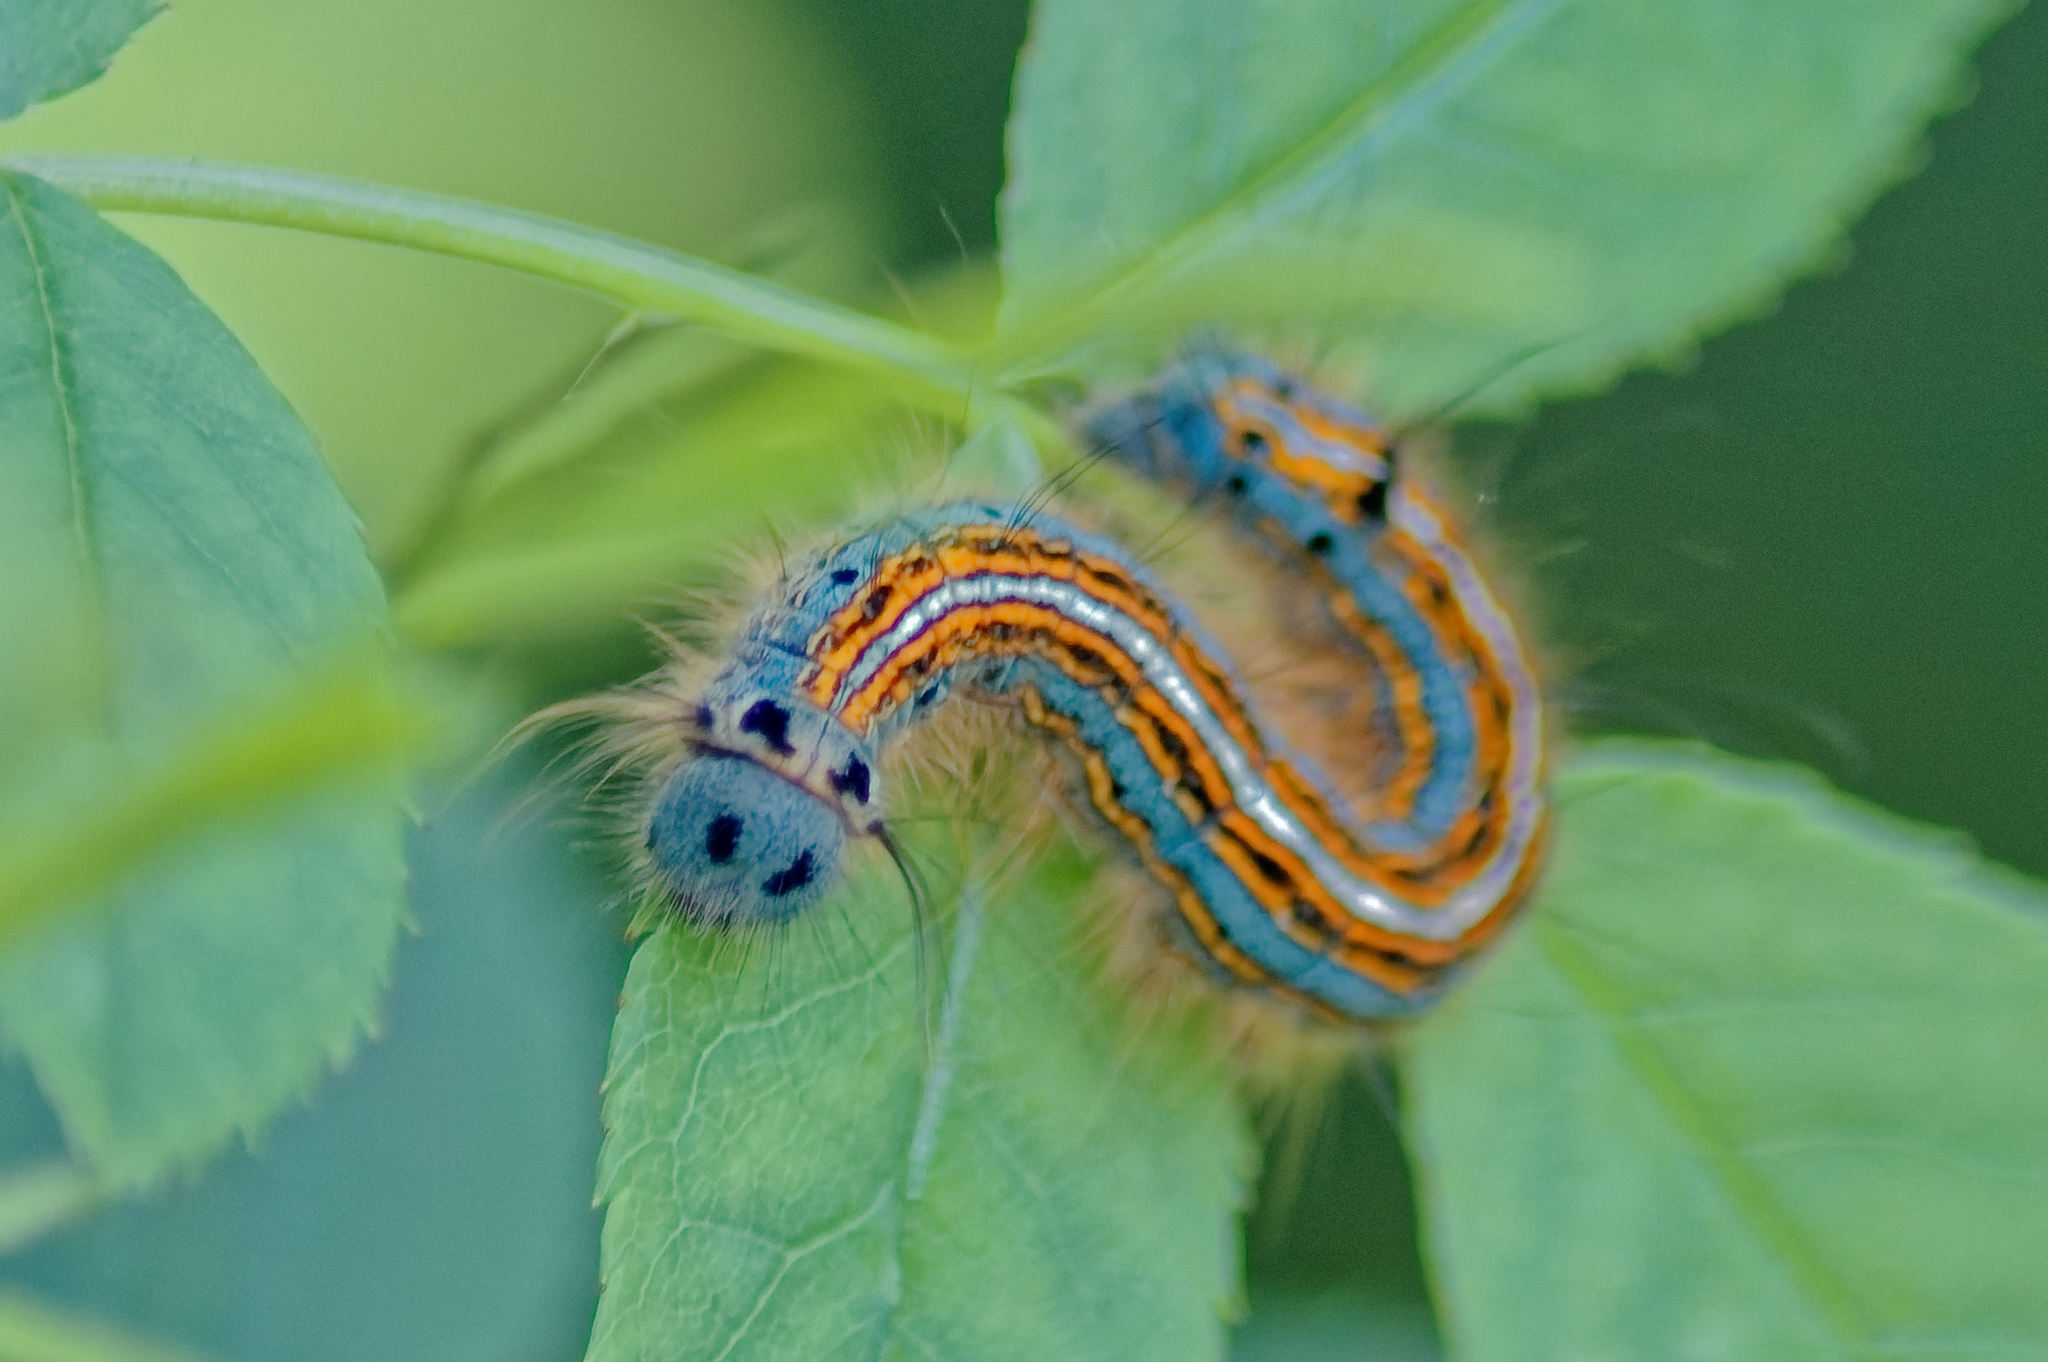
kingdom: Animalia
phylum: Arthropoda
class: Insecta
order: Lepidoptera
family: Lasiocampidae
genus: Malacosoma
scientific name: Malacosoma neustria
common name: The lackey
